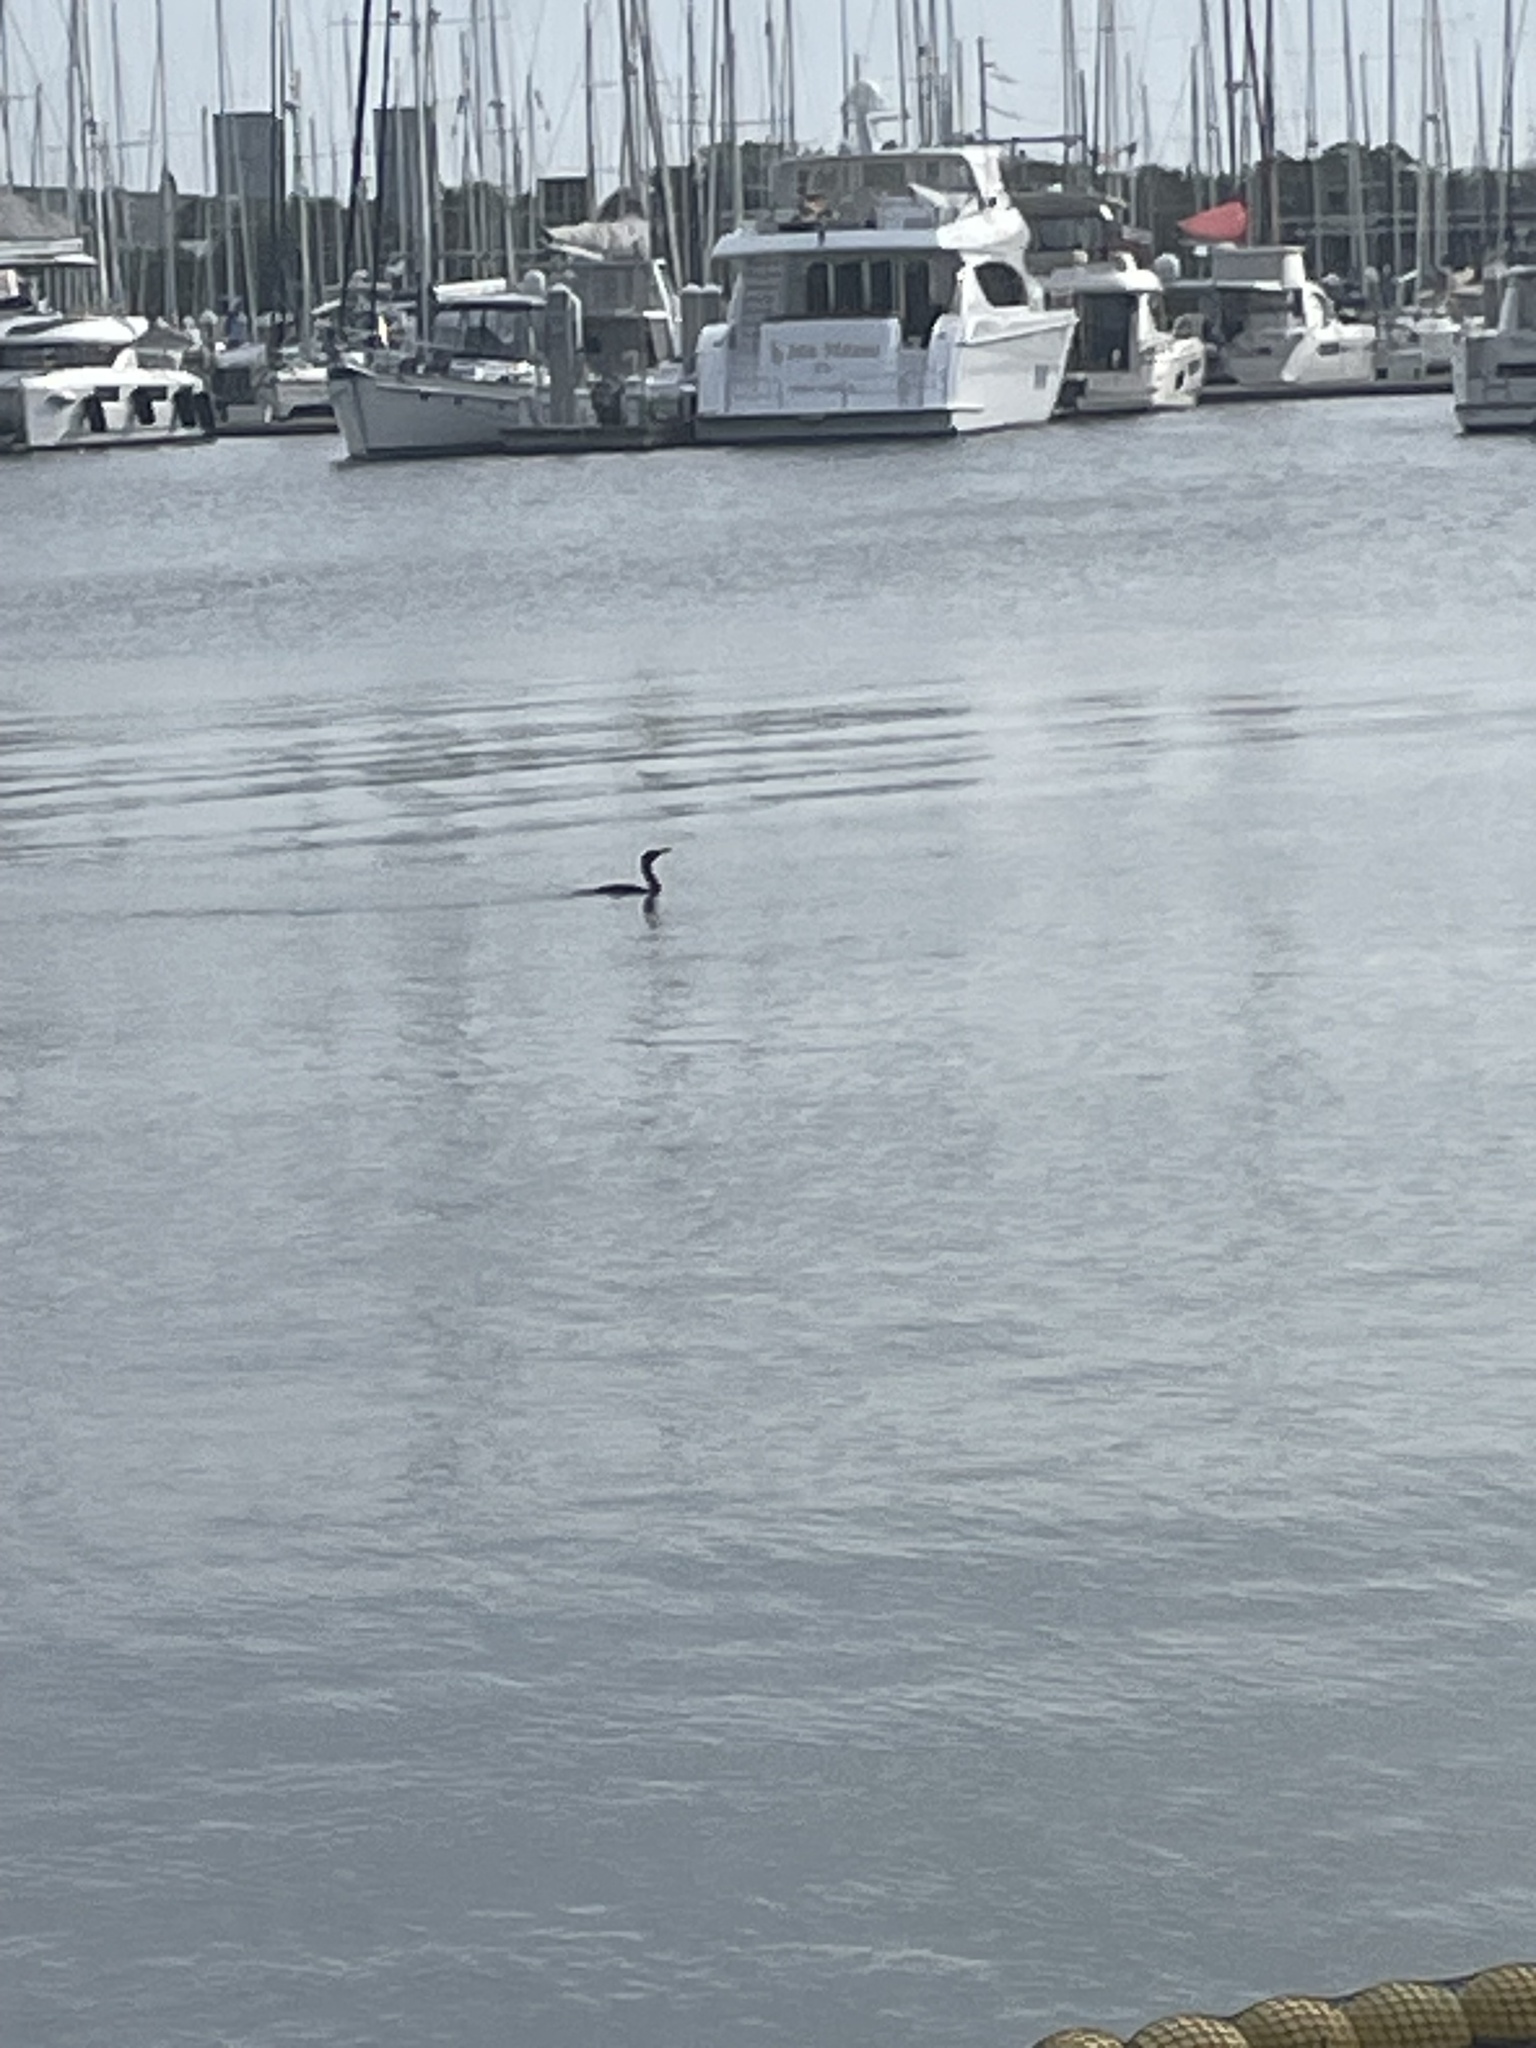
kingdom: Animalia
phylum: Chordata
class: Aves
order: Suliformes
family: Phalacrocoracidae
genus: Phalacrocorax
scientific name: Phalacrocorax auritus
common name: Double-crested cormorant
